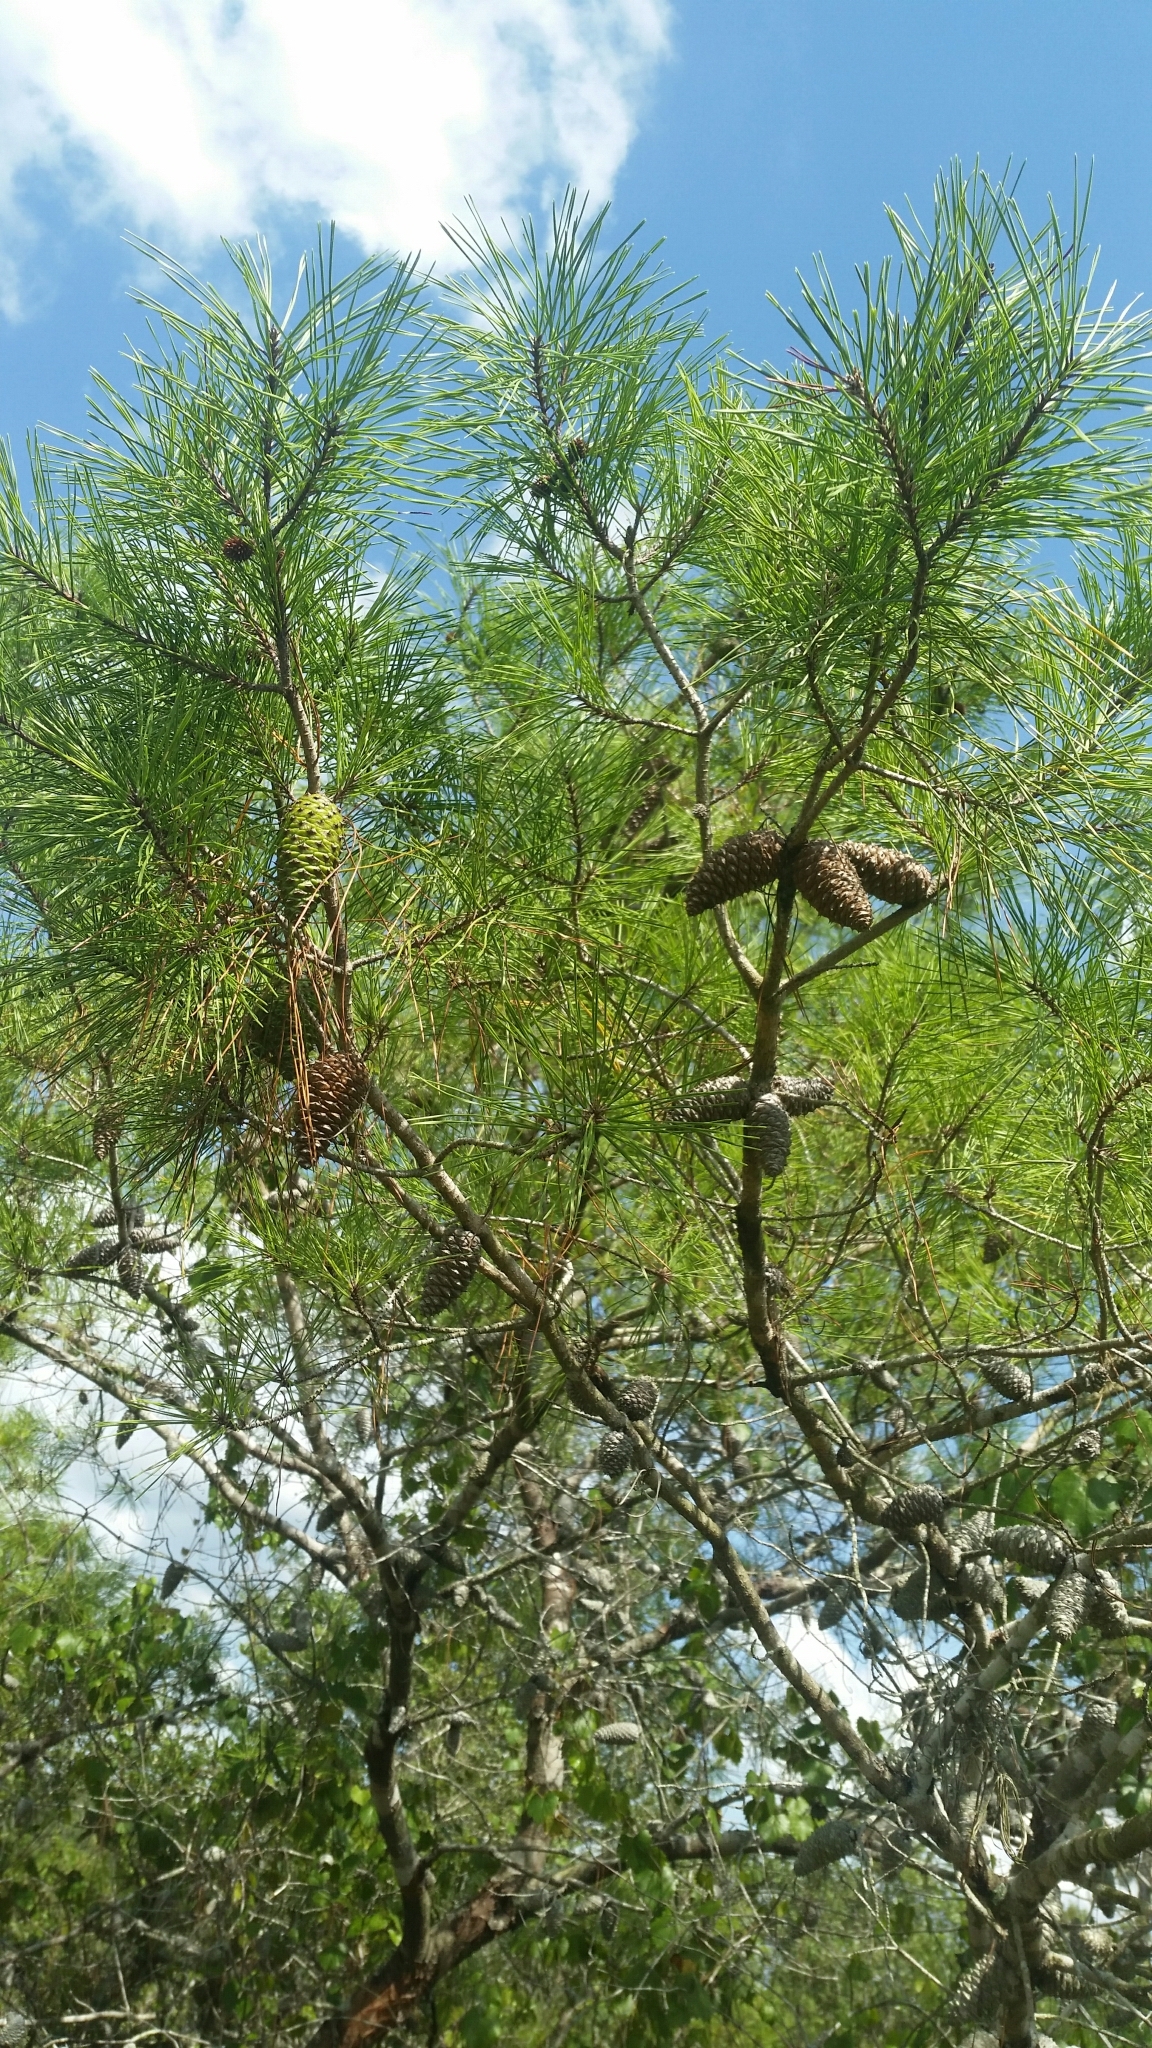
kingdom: Plantae
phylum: Tracheophyta
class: Pinopsida
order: Pinales
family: Pinaceae
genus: Pinus
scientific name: Pinus clausa
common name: Sand pine
